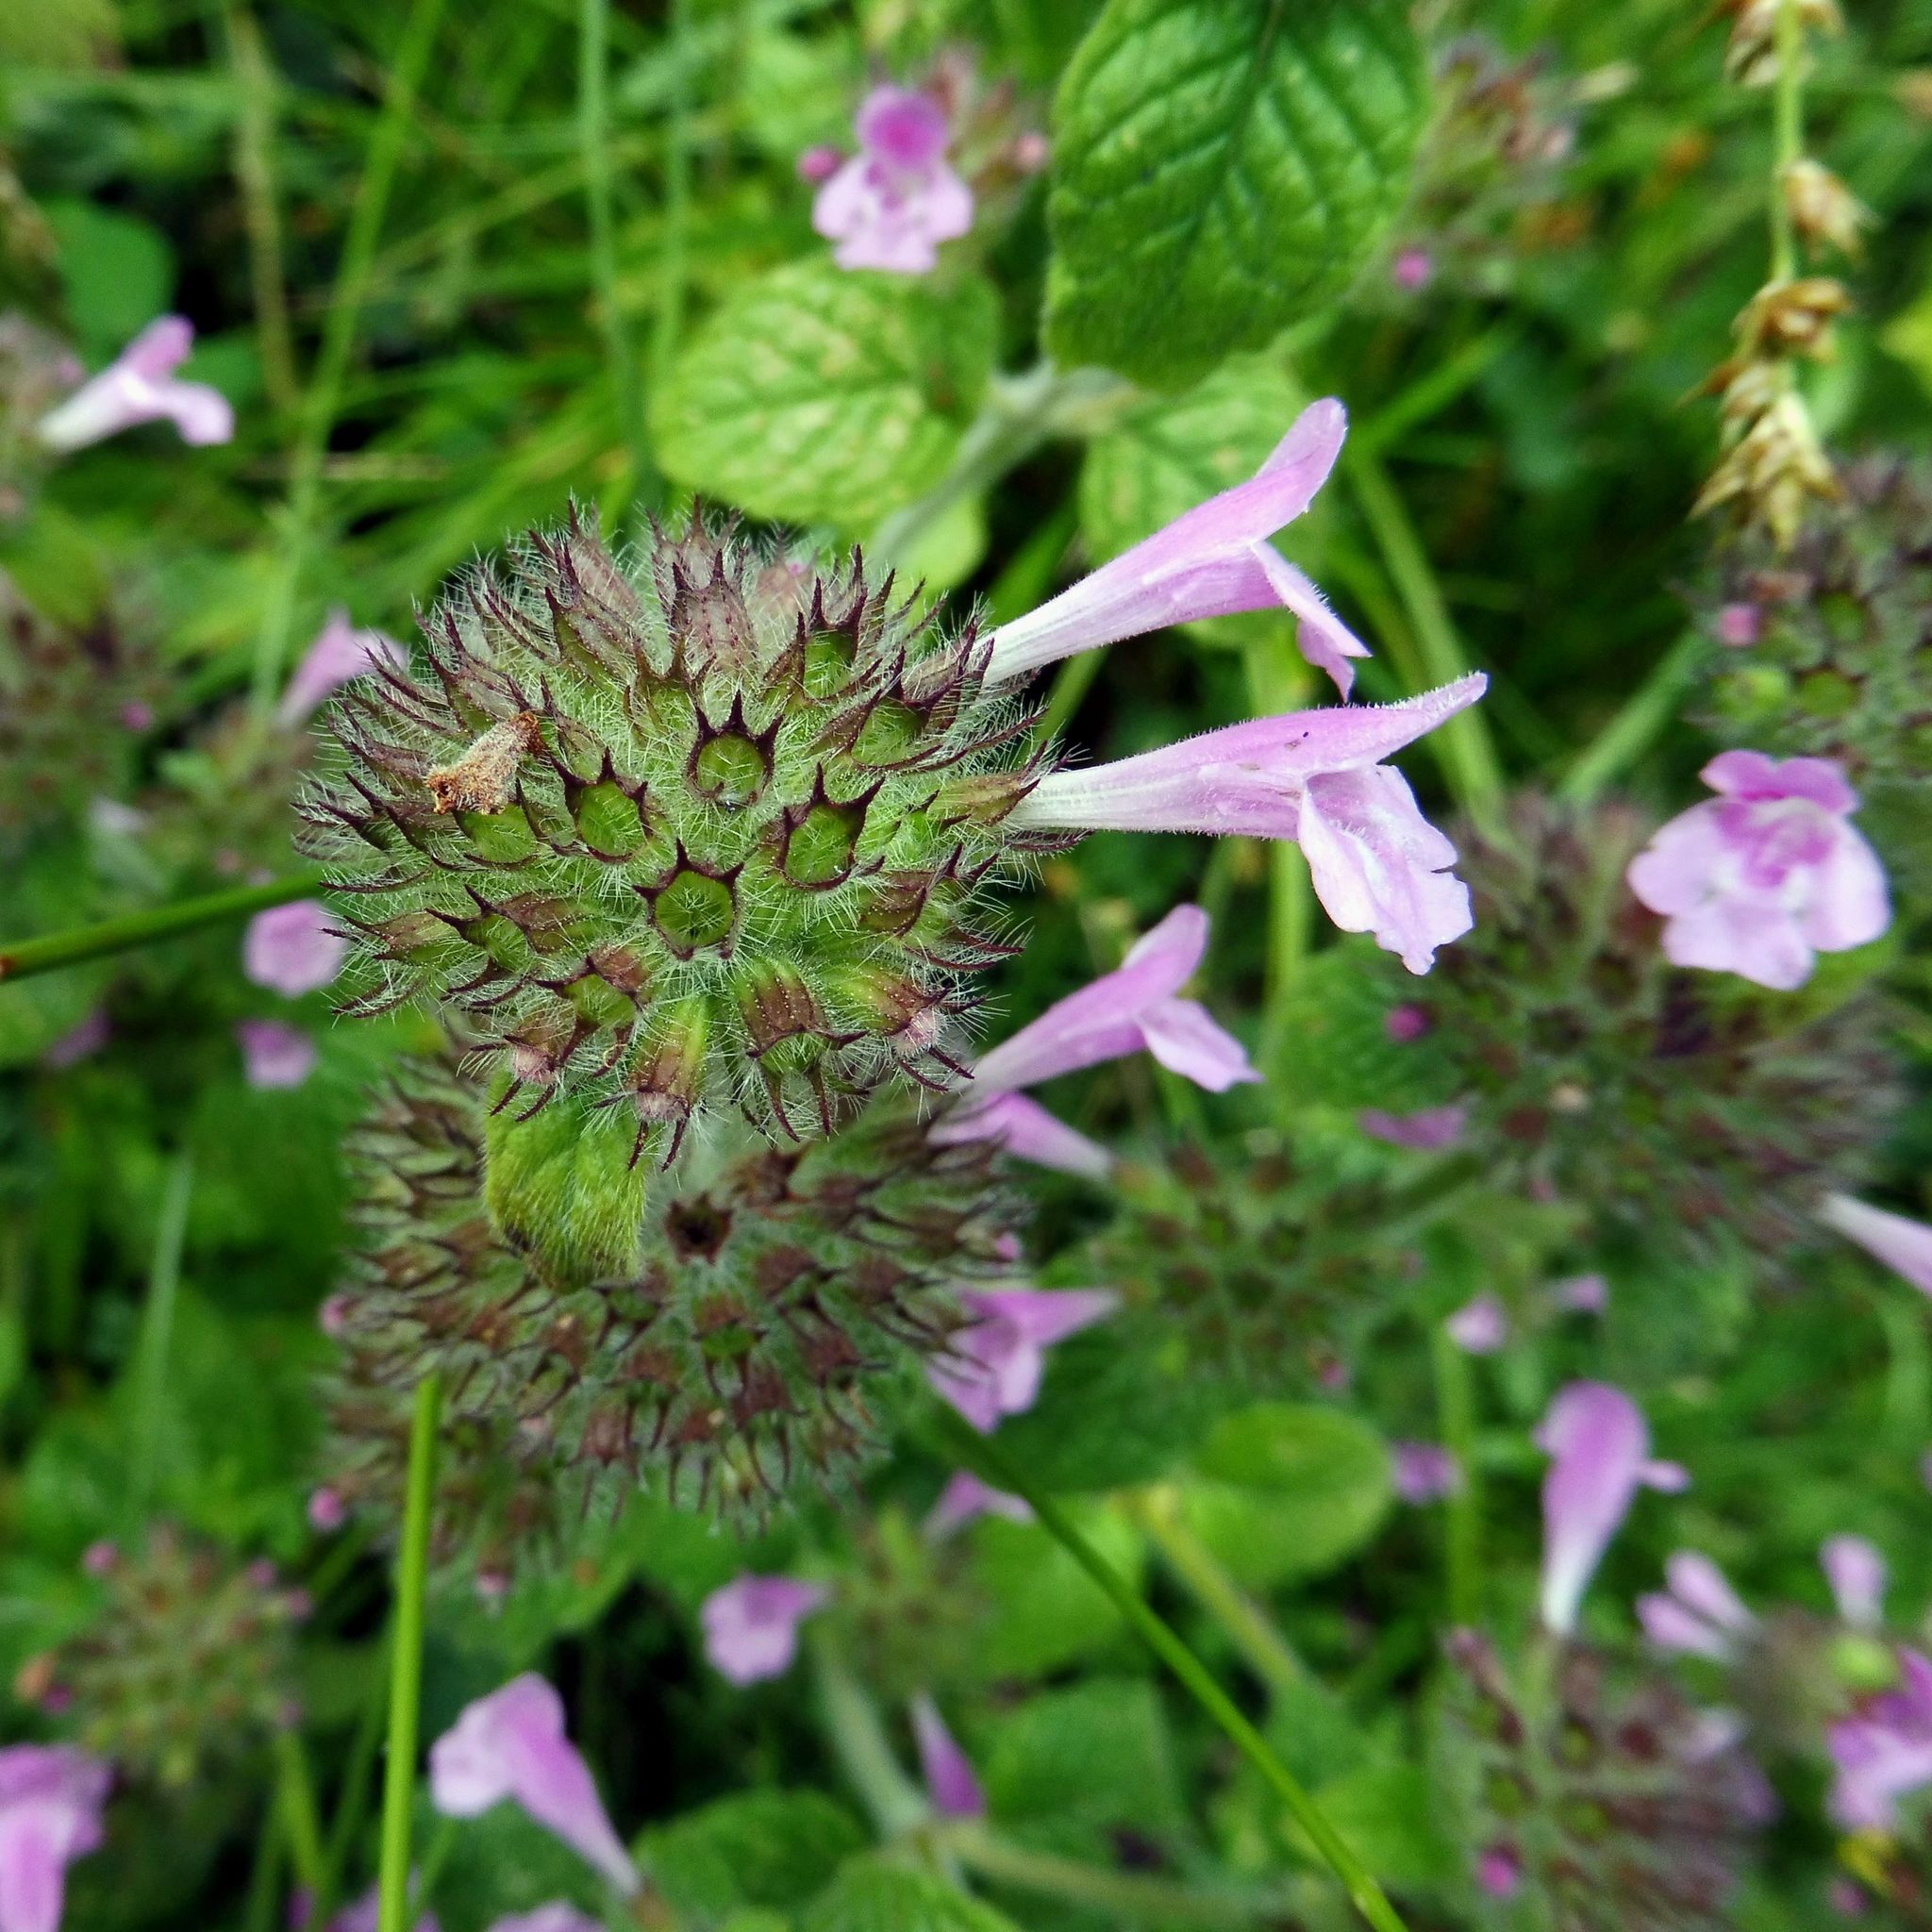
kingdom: Plantae
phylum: Tracheophyta
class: Magnoliopsida
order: Lamiales
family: Lamiaceae
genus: Clinopodium
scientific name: Clinopodium vulgare
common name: Wild basil
